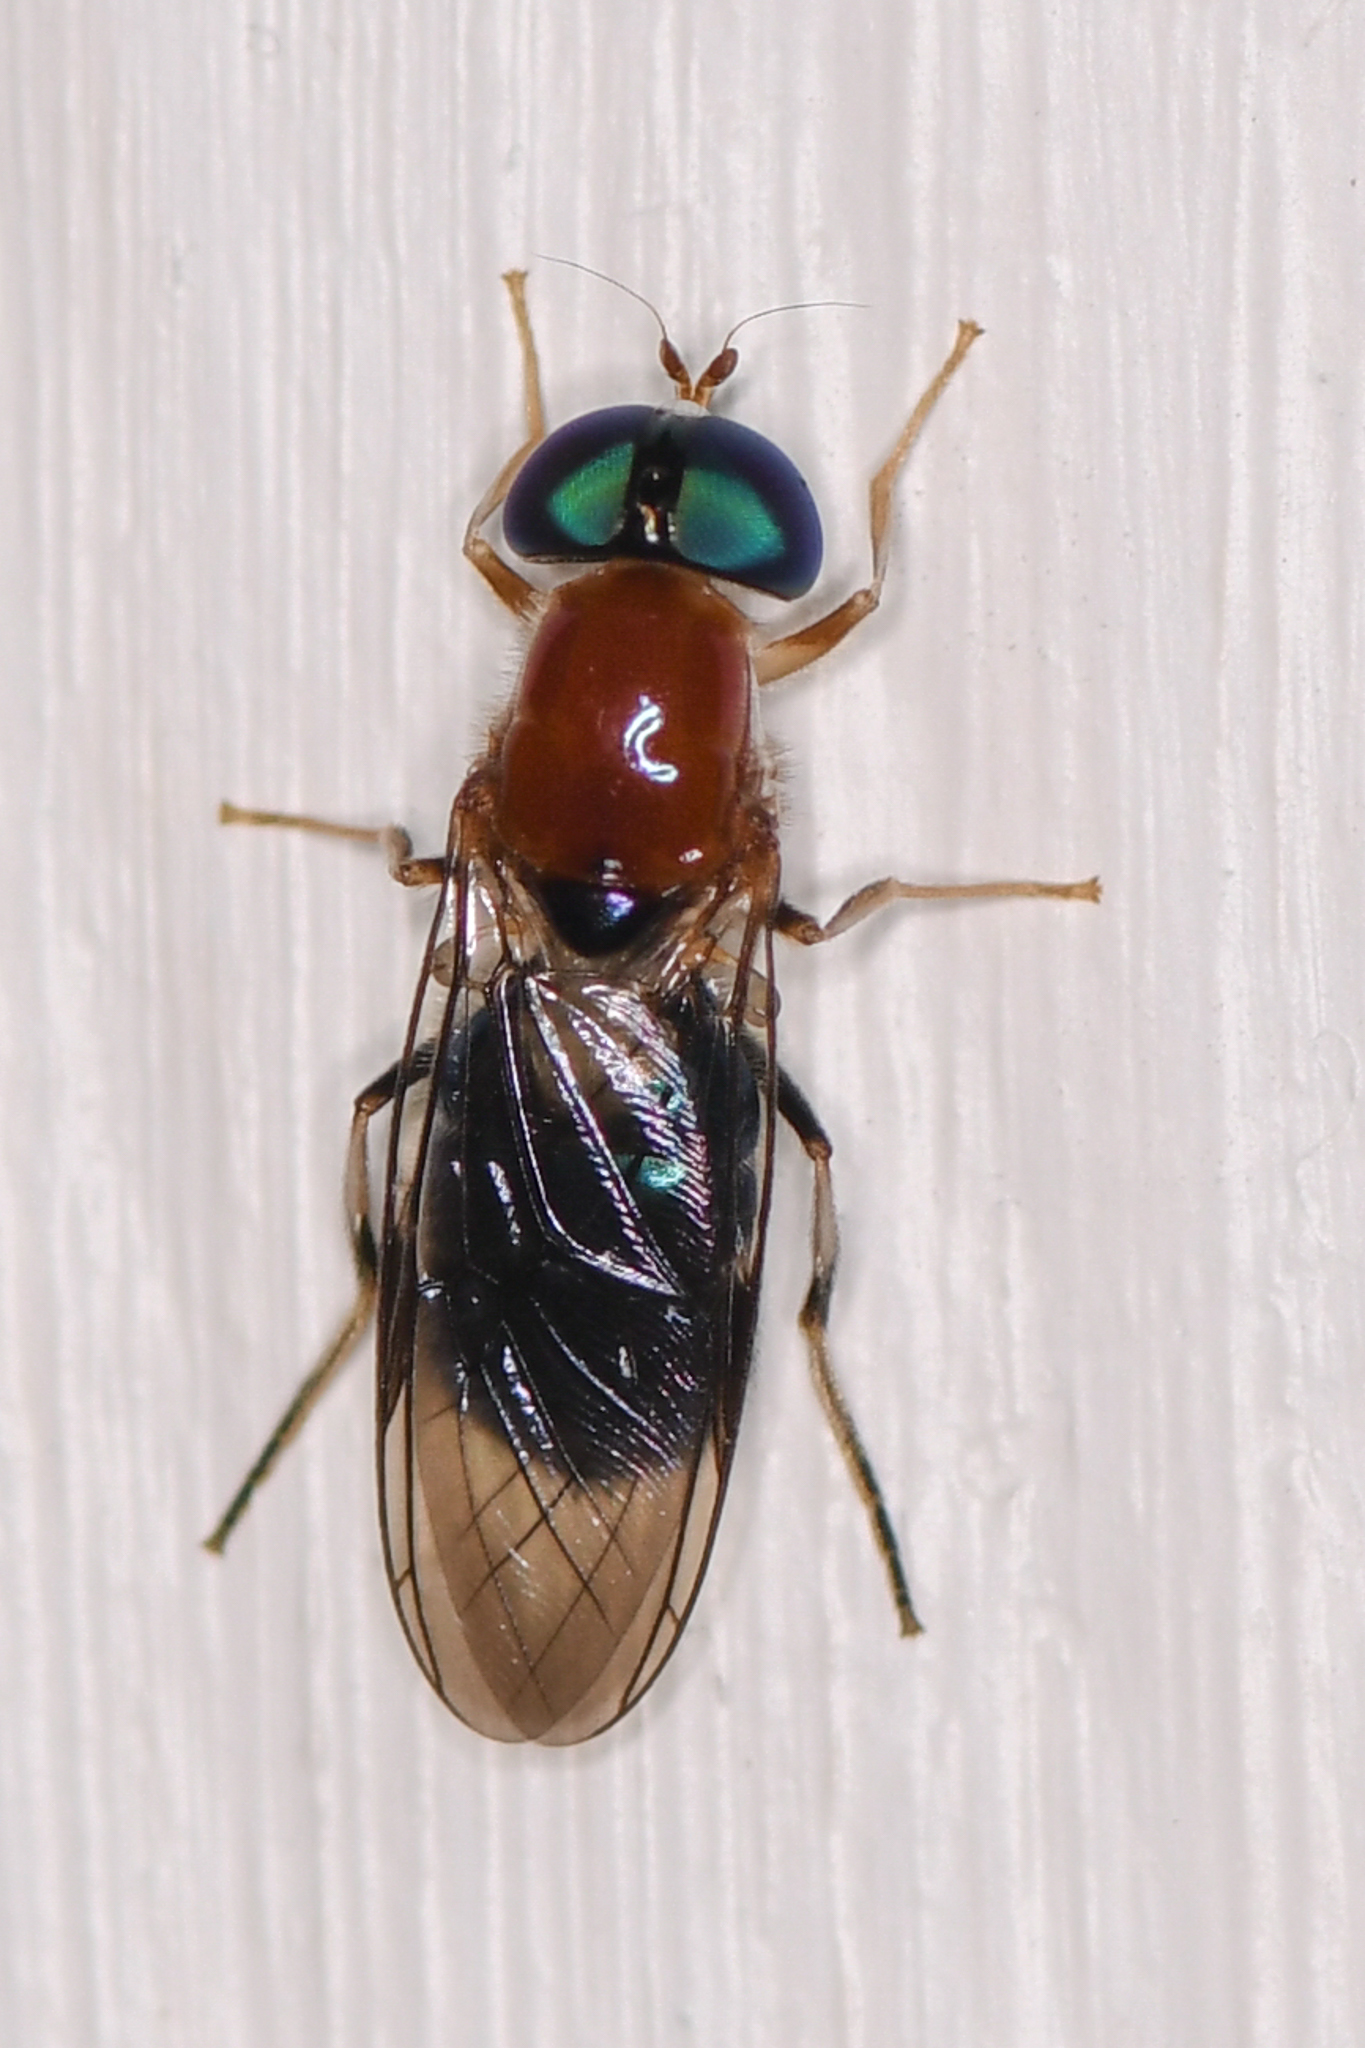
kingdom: Animalia
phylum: Arthropoda
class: Insecta
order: Diptera
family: Stratiomyidae
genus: Sargus
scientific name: Sargus thoracicus
